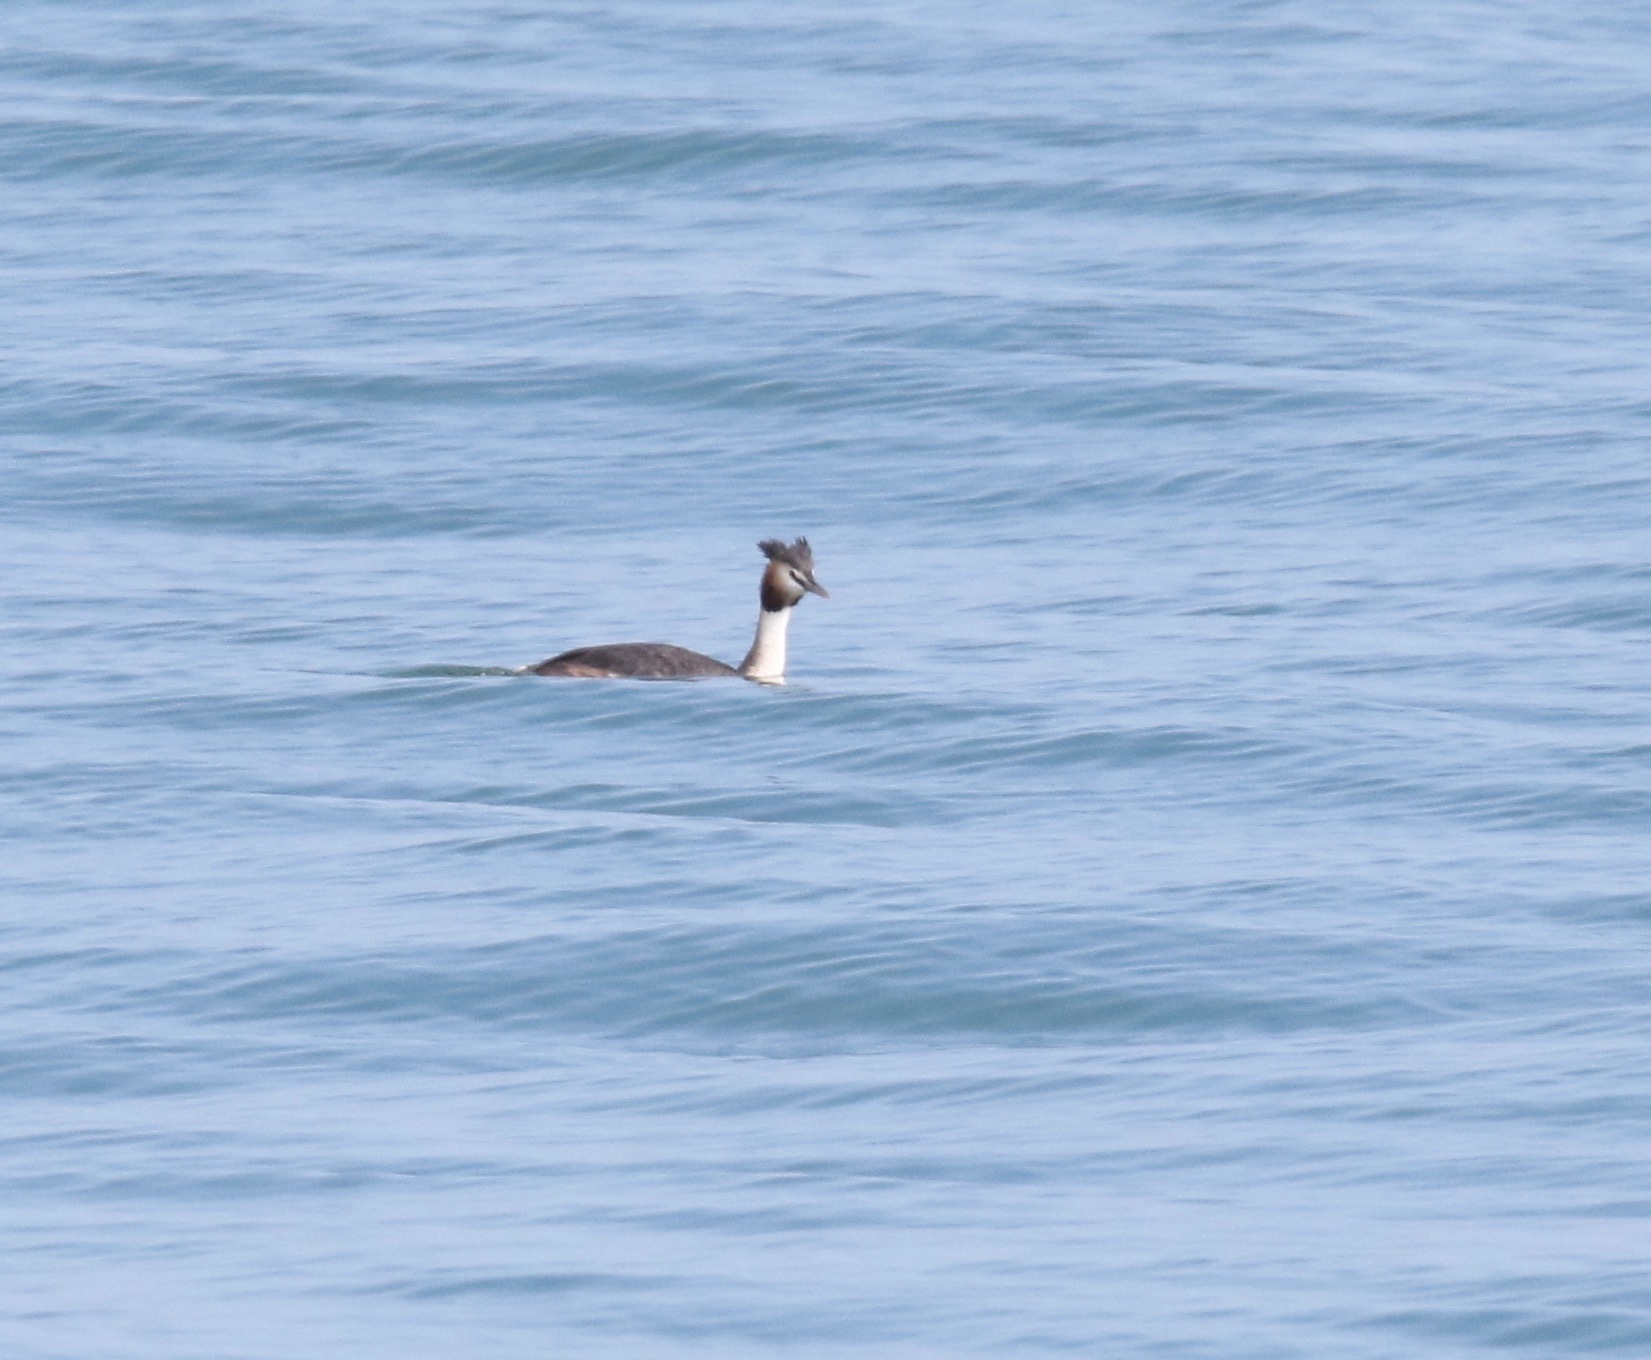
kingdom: Animalia
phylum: Chordata
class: Aves
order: Podicipediformes
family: Podicipedidae
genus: Podiceps
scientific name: Podiceps cristatus
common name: Great crested grebe
